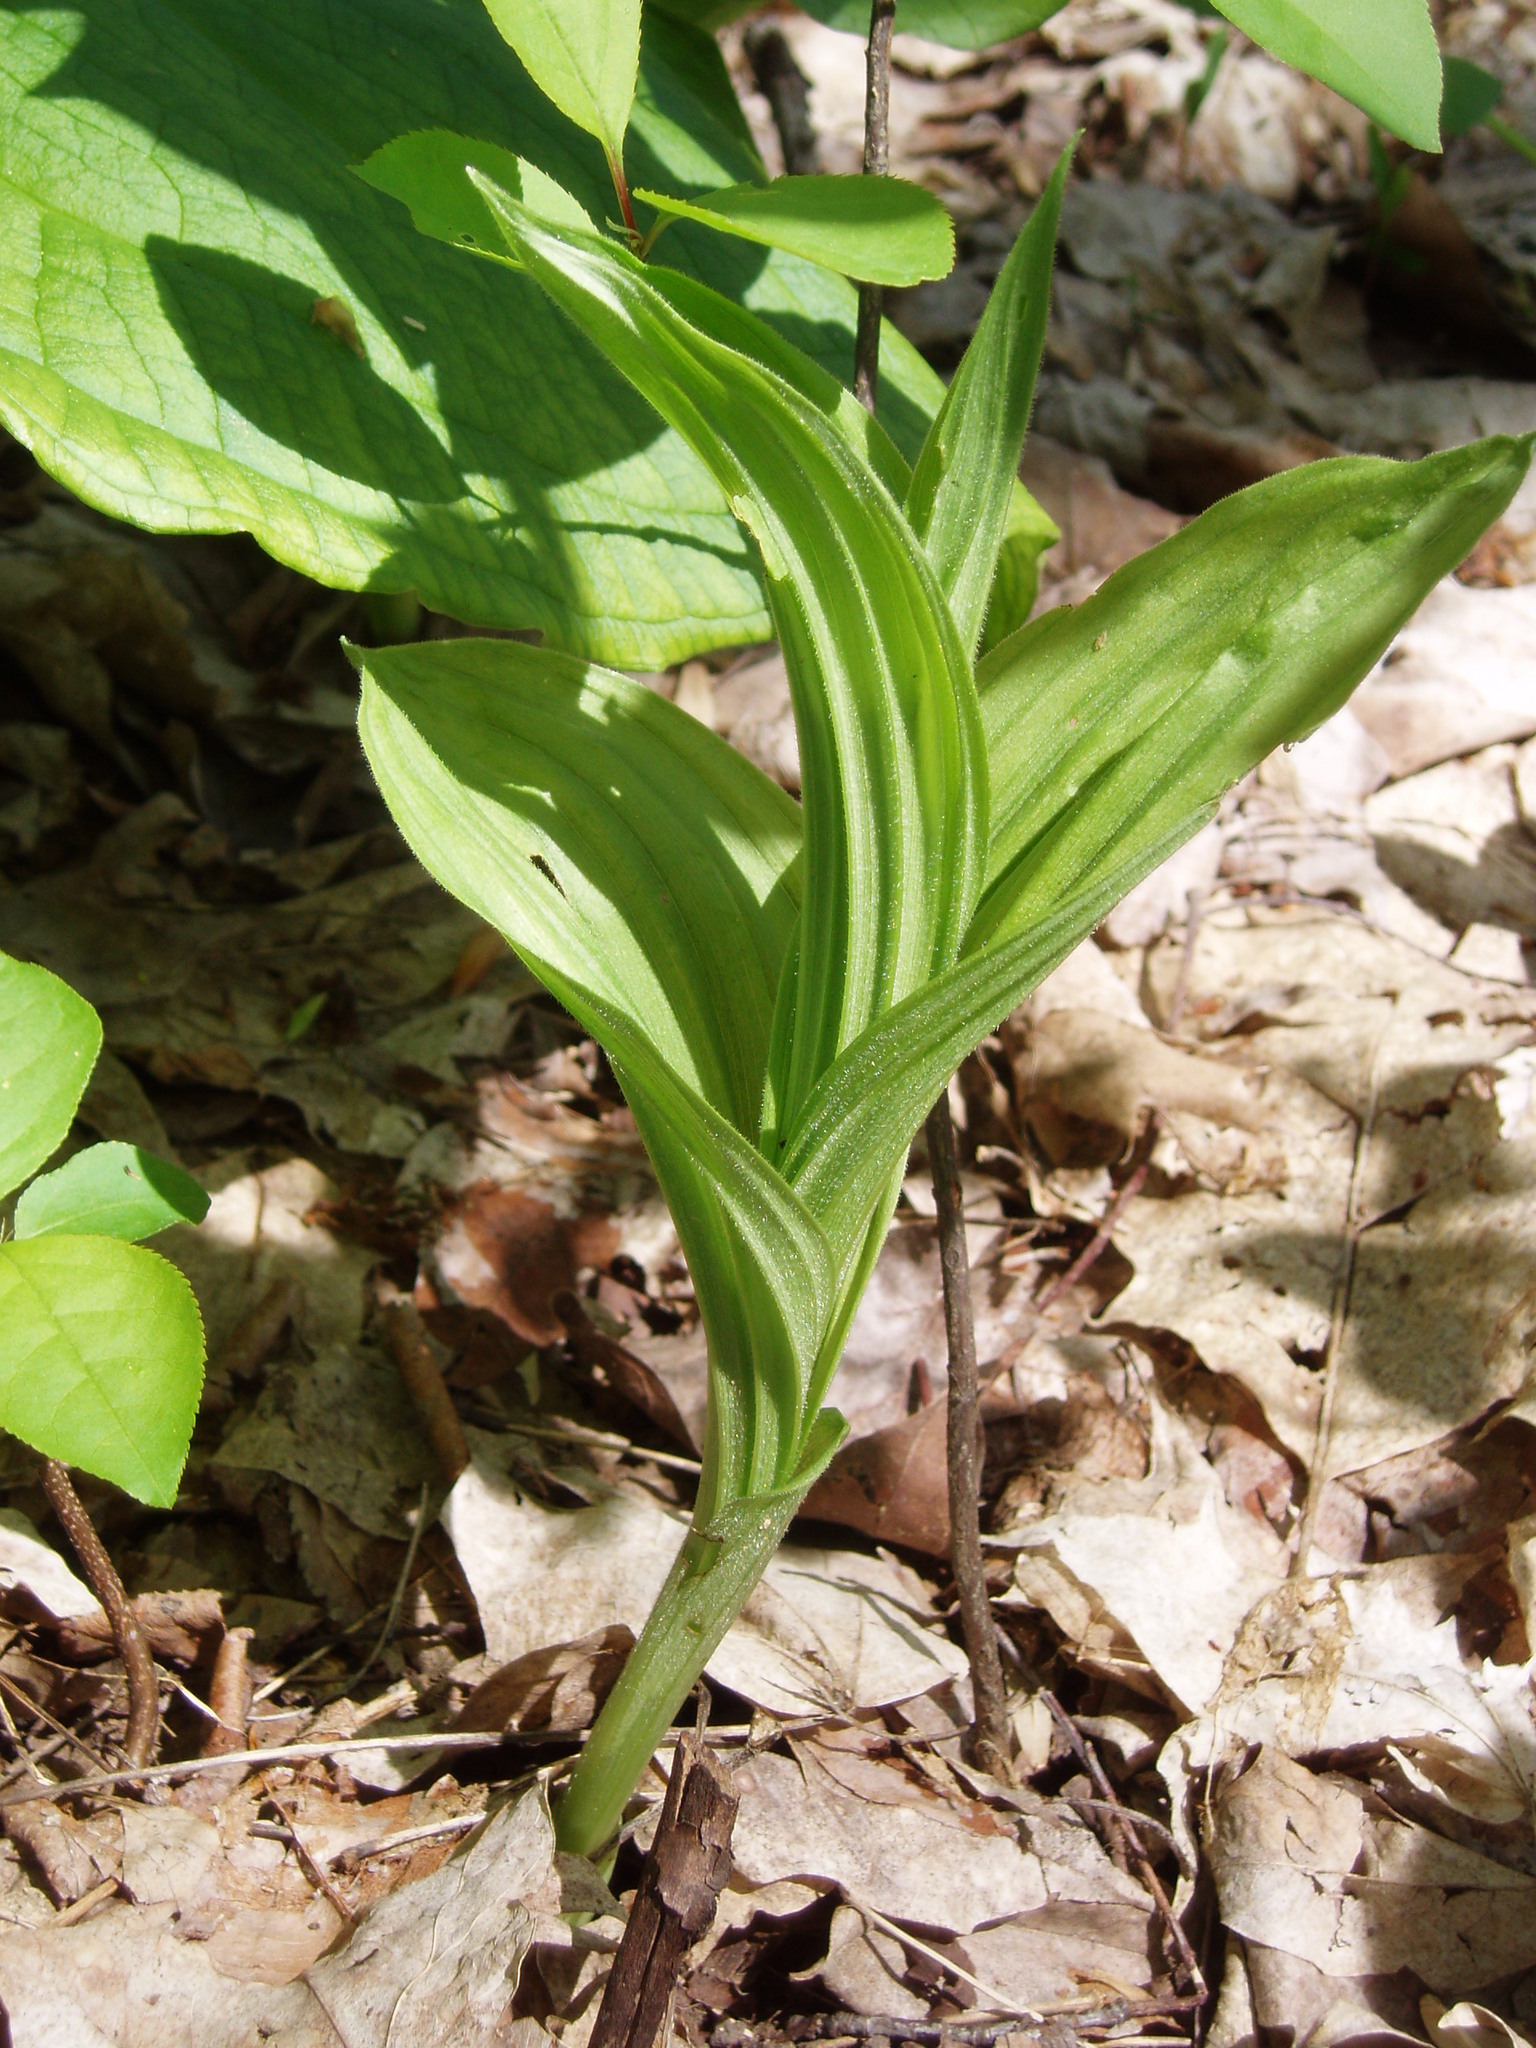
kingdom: Plantae
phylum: Tracheophyta
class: Liliopsida
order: Asparagales
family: Orchidaceae
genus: Cypripedium
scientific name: Cypripedium parviflorum
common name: American yellow lady's-slipper
